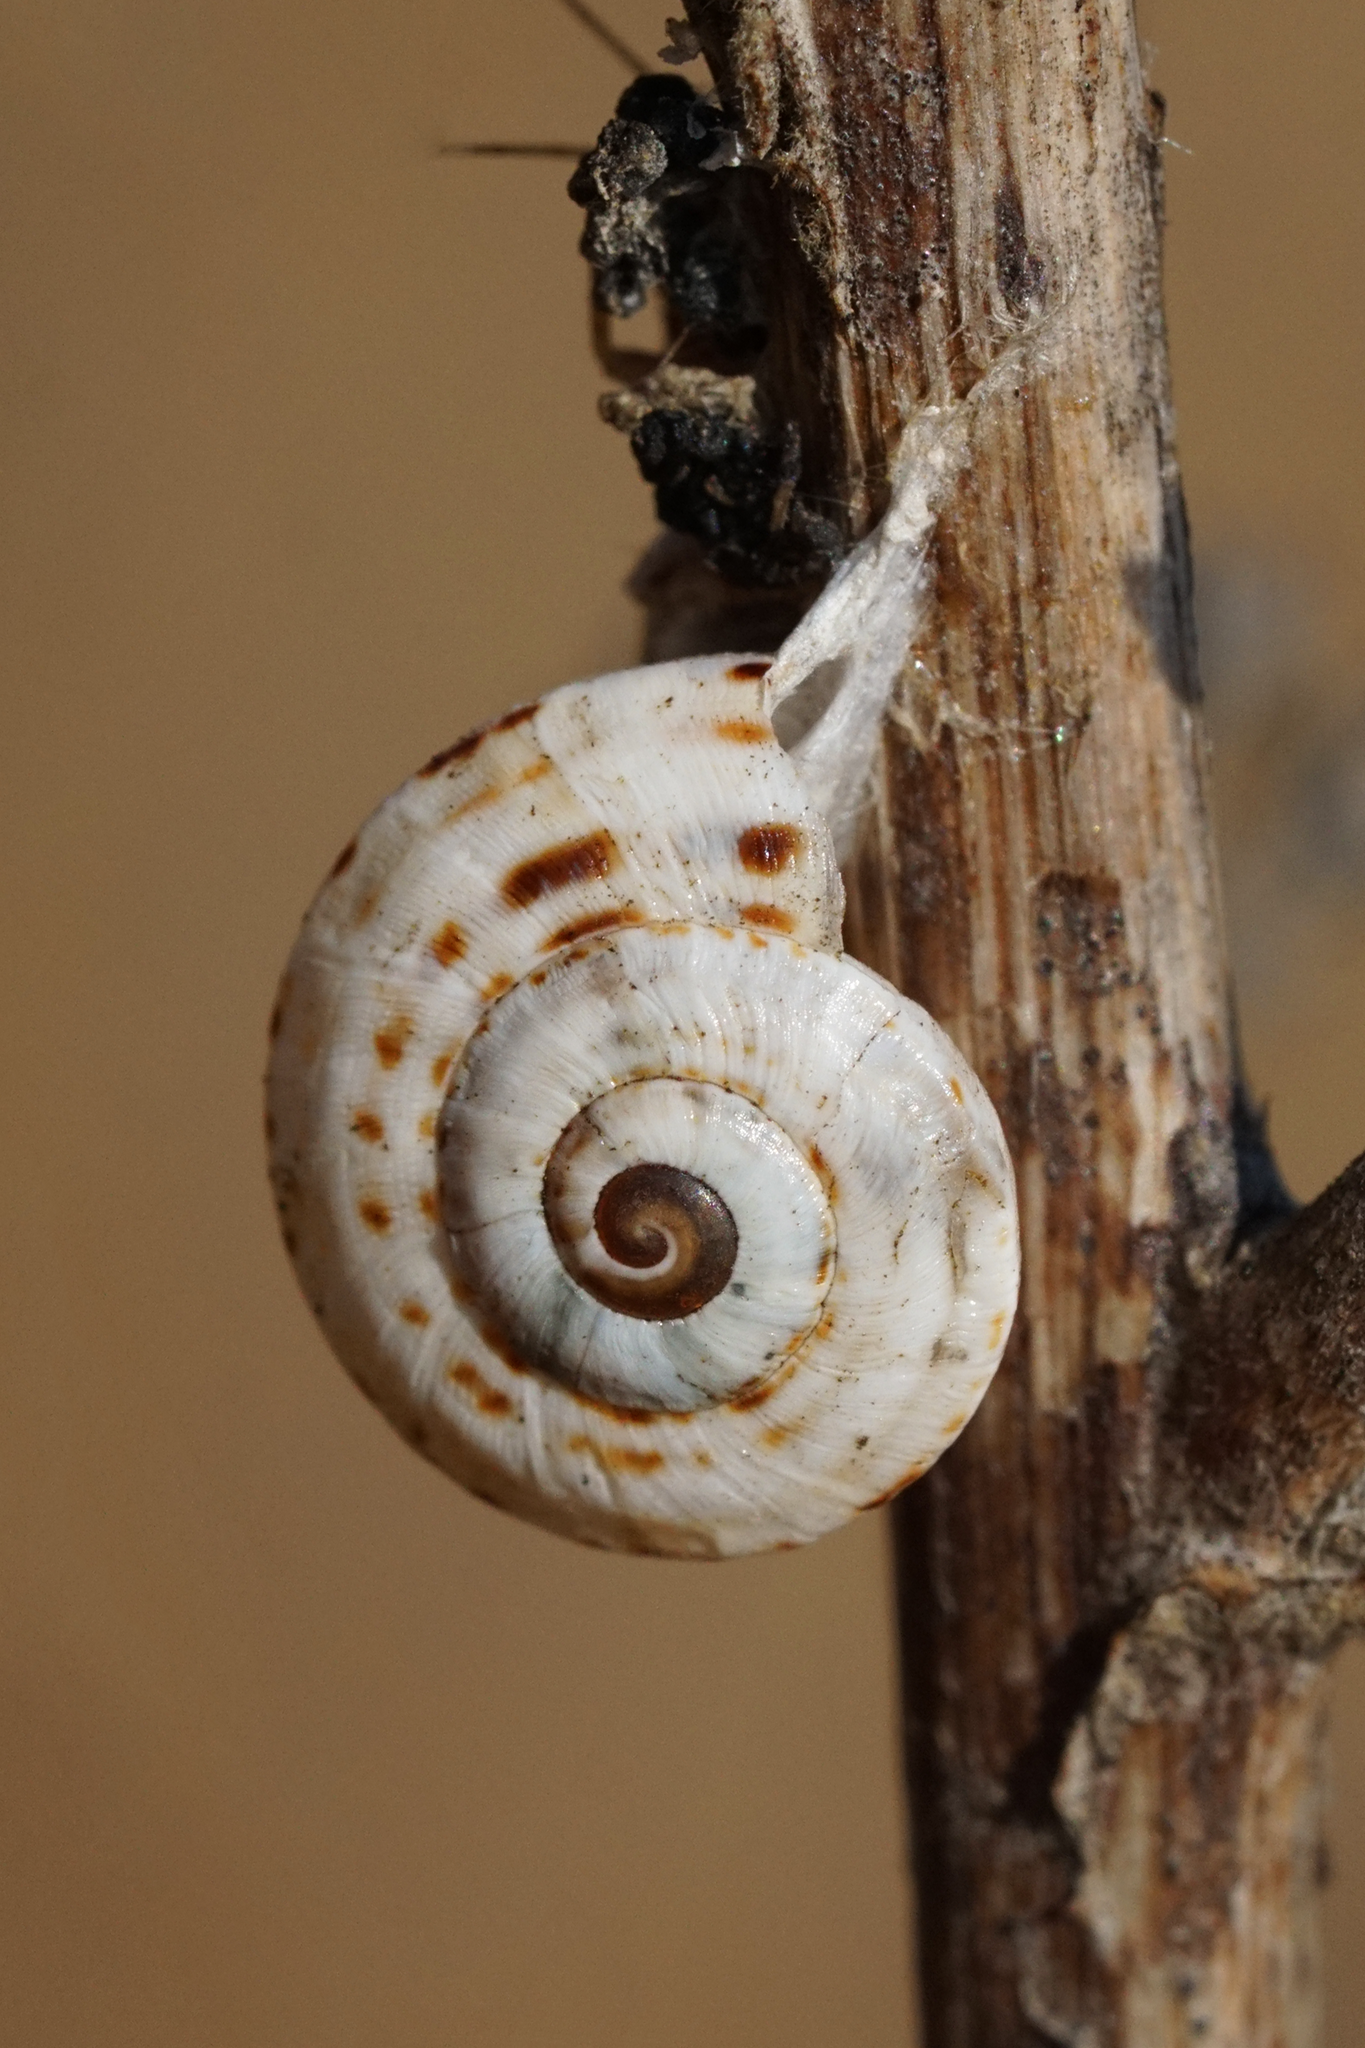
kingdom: Animalia
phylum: Mollusca
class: Gastropoda
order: Stylommatophora
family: Helicidae
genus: Theba
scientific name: Theba pisana
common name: White snail
